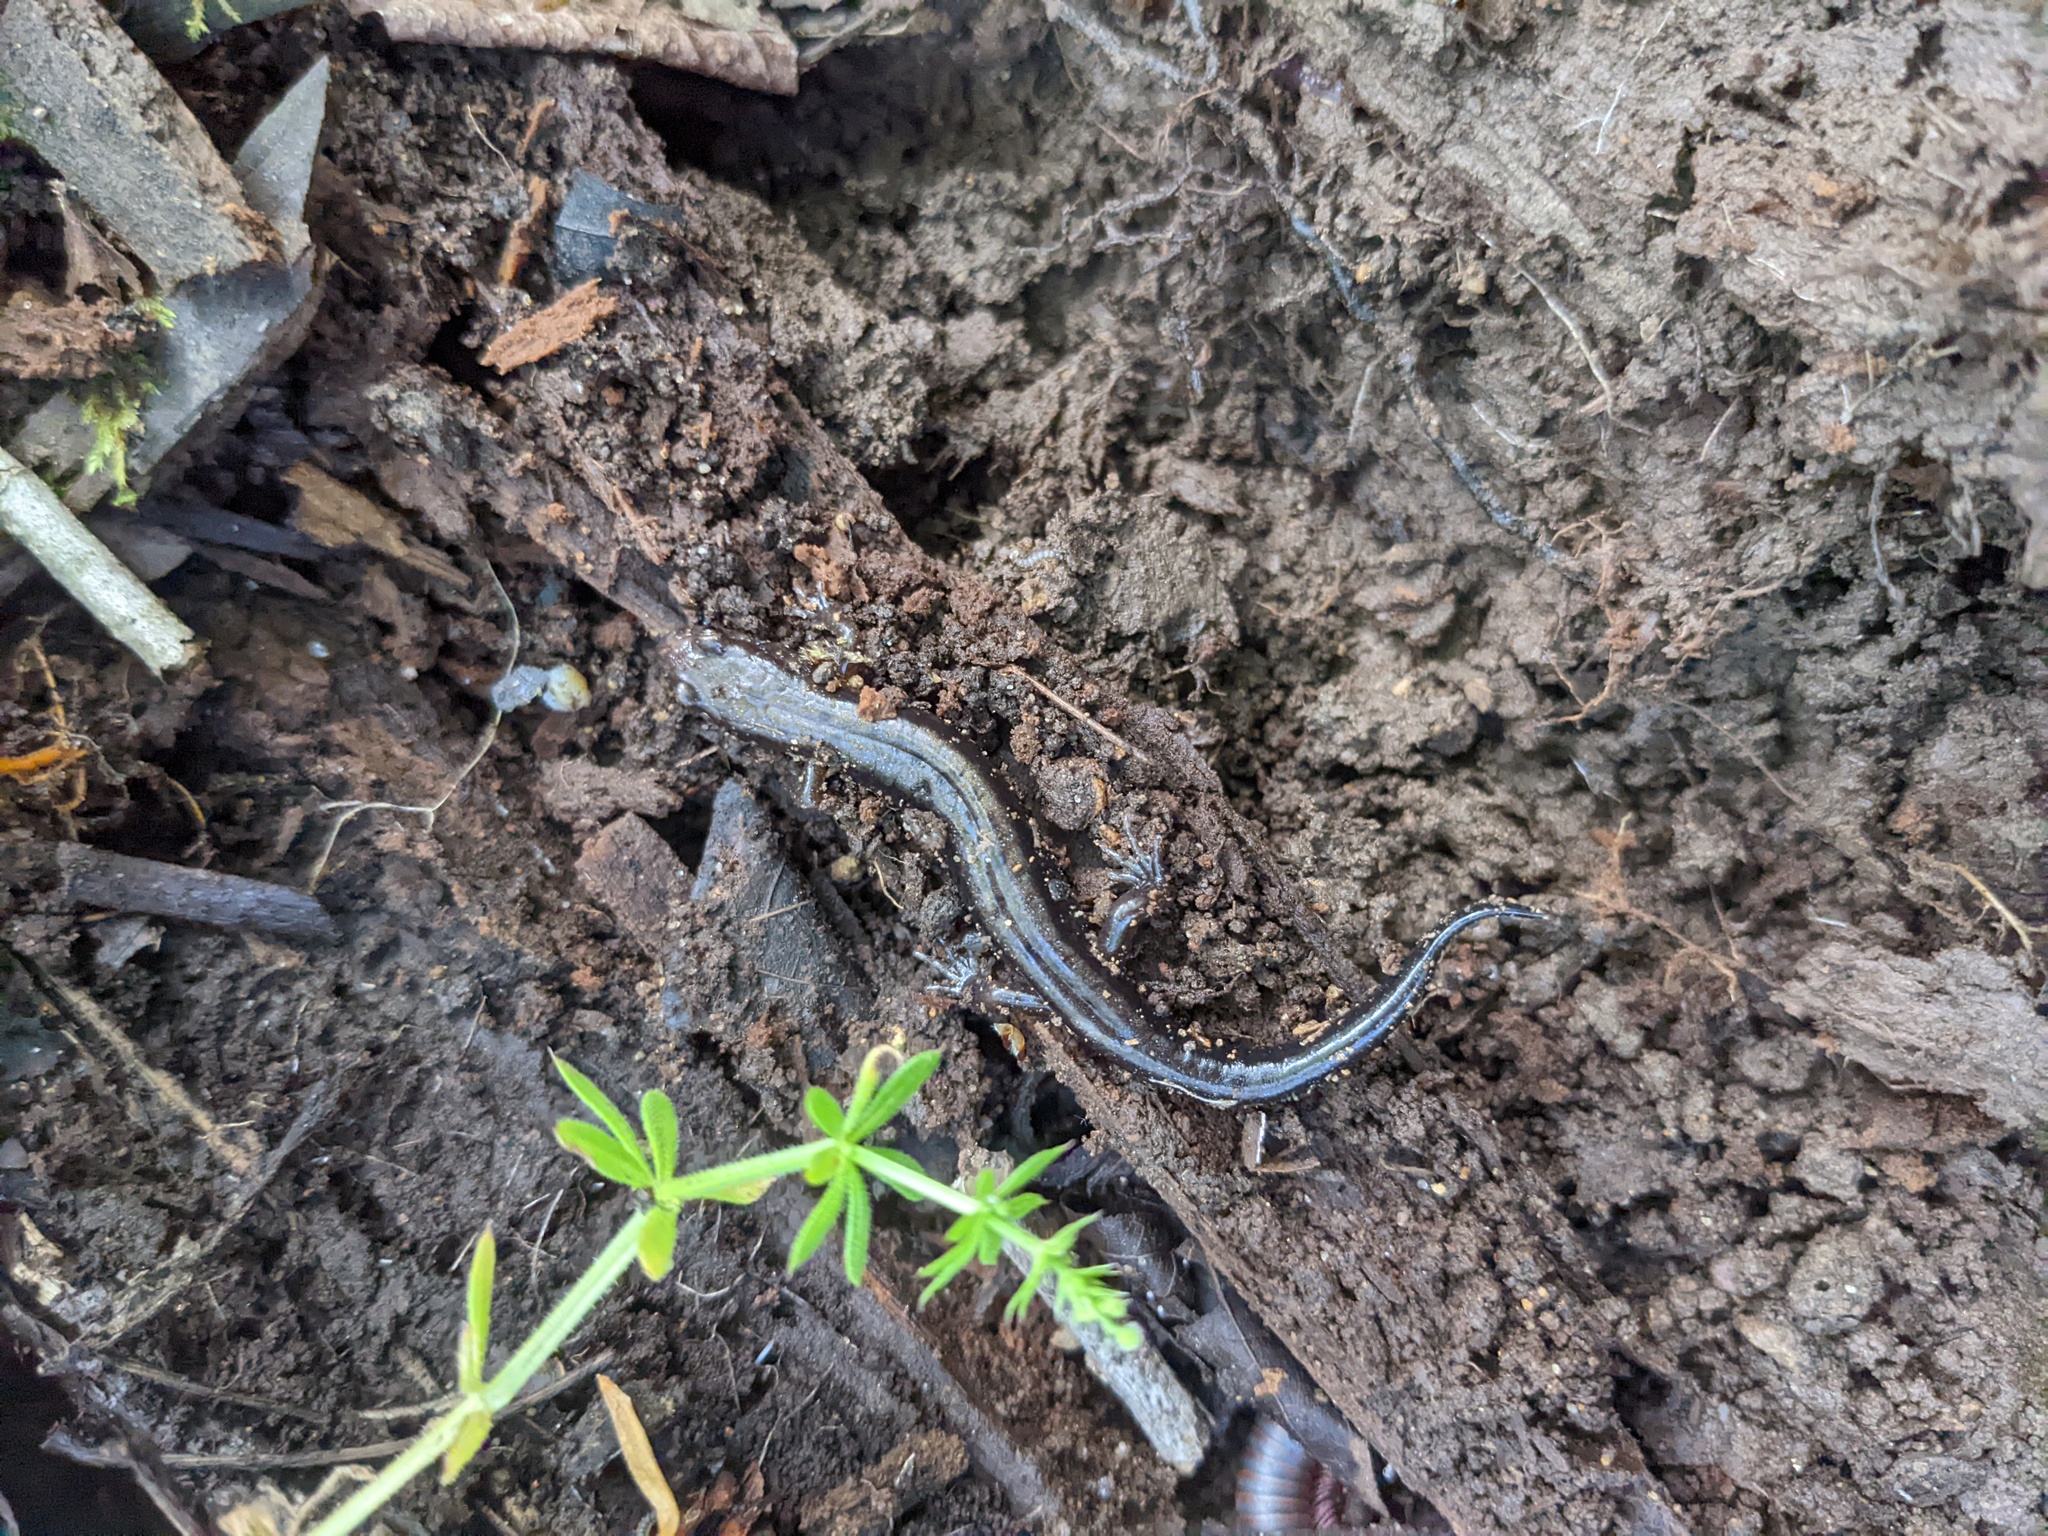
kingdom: Animalia
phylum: Chordata
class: Amphibia
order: Caudata
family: Plethodontidae
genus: Desmognathus
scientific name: Desmognathus ochrophaeus
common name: Allegheny mountain dusky salamander
